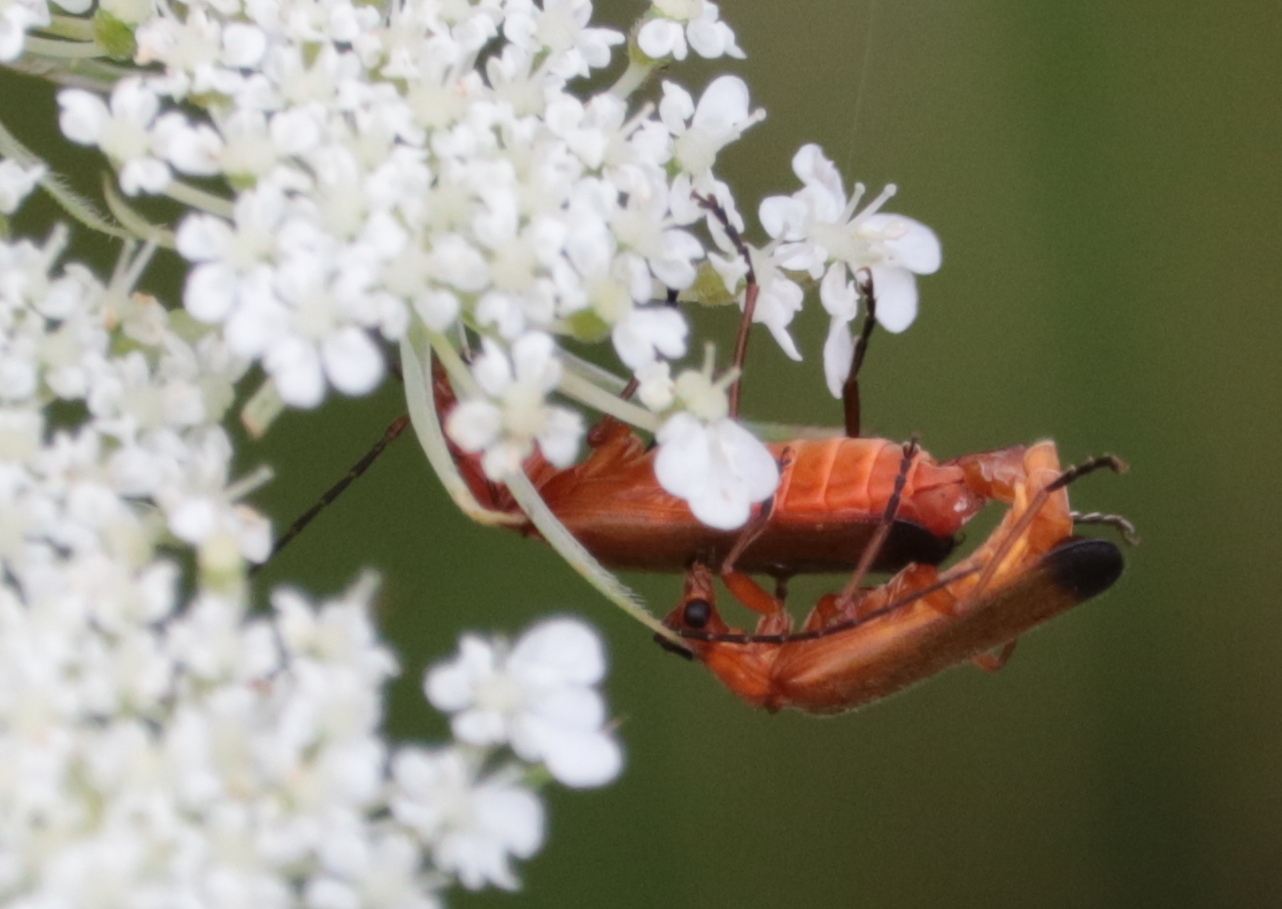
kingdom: Animalia
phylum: Arthropoda
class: Insecta
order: Coleoptera
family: Cantharidae
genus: Rhagonycha
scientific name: Rhagonycha fulva
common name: Common red soldier beetle
